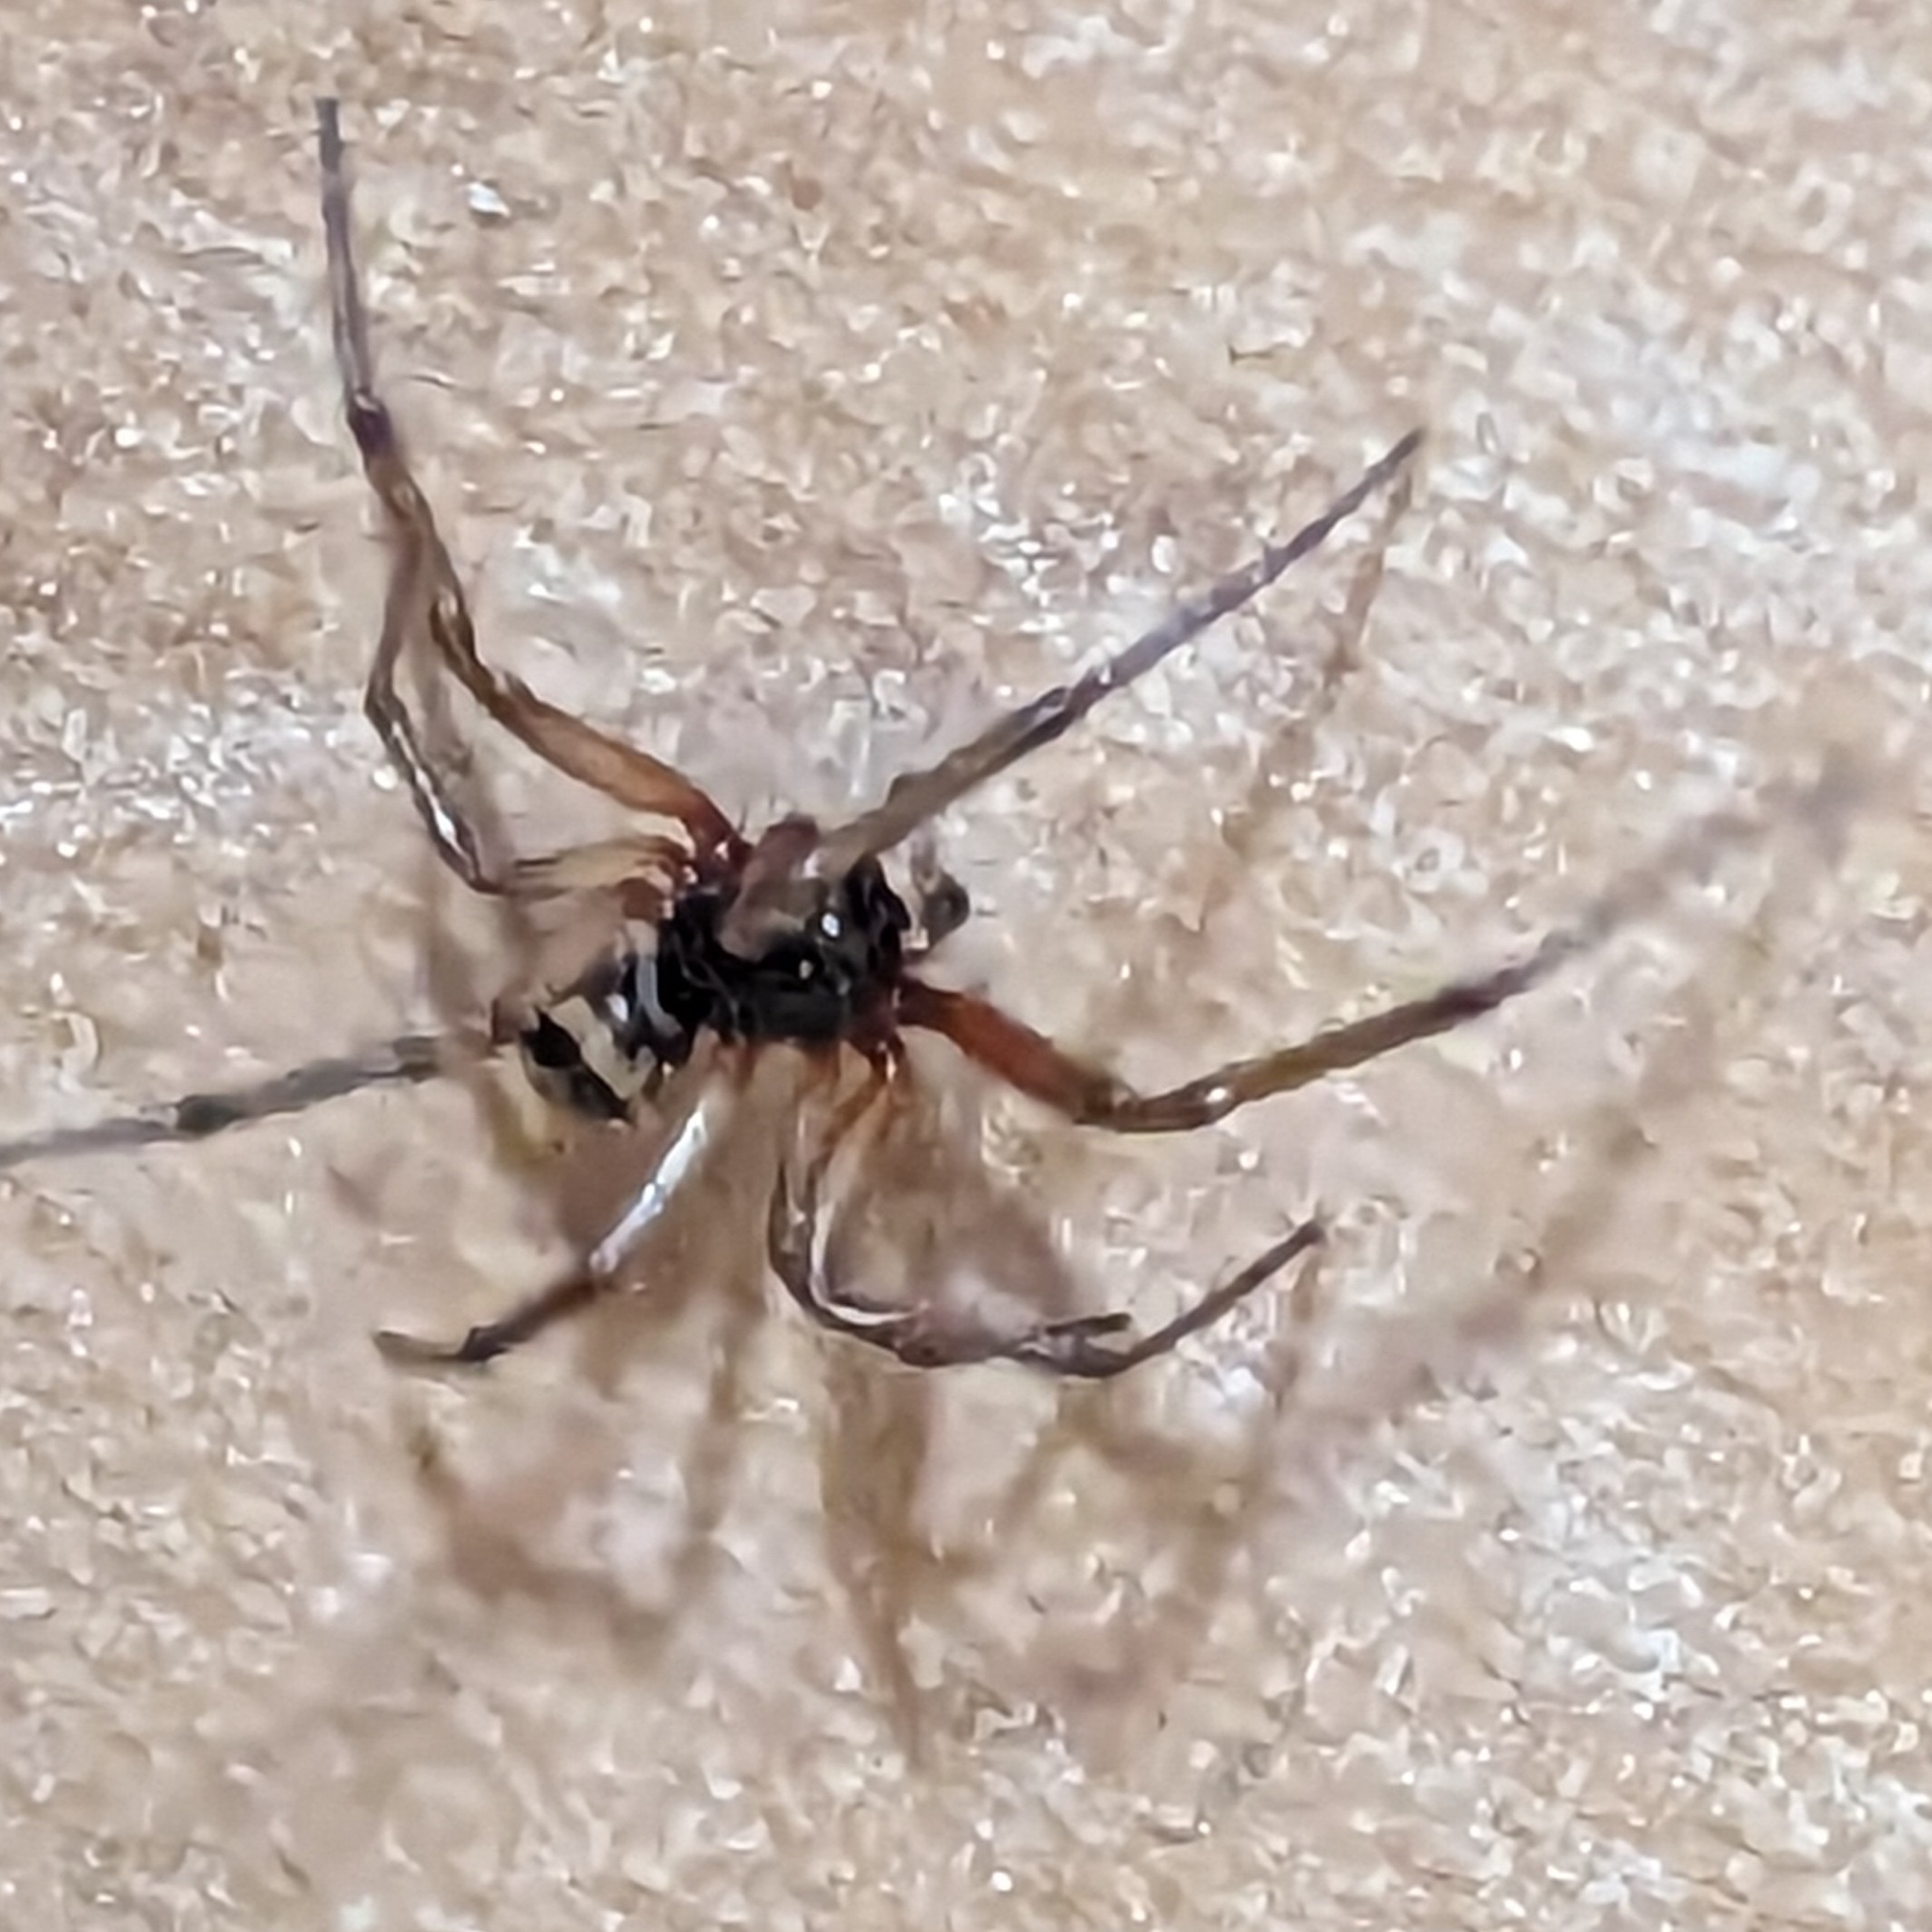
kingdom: Animalia
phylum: Arthropoda
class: Arachnida
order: Araneae
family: Theridiidae
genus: Steatoda
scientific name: Steatoda nobilis
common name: Cobweb weaver
